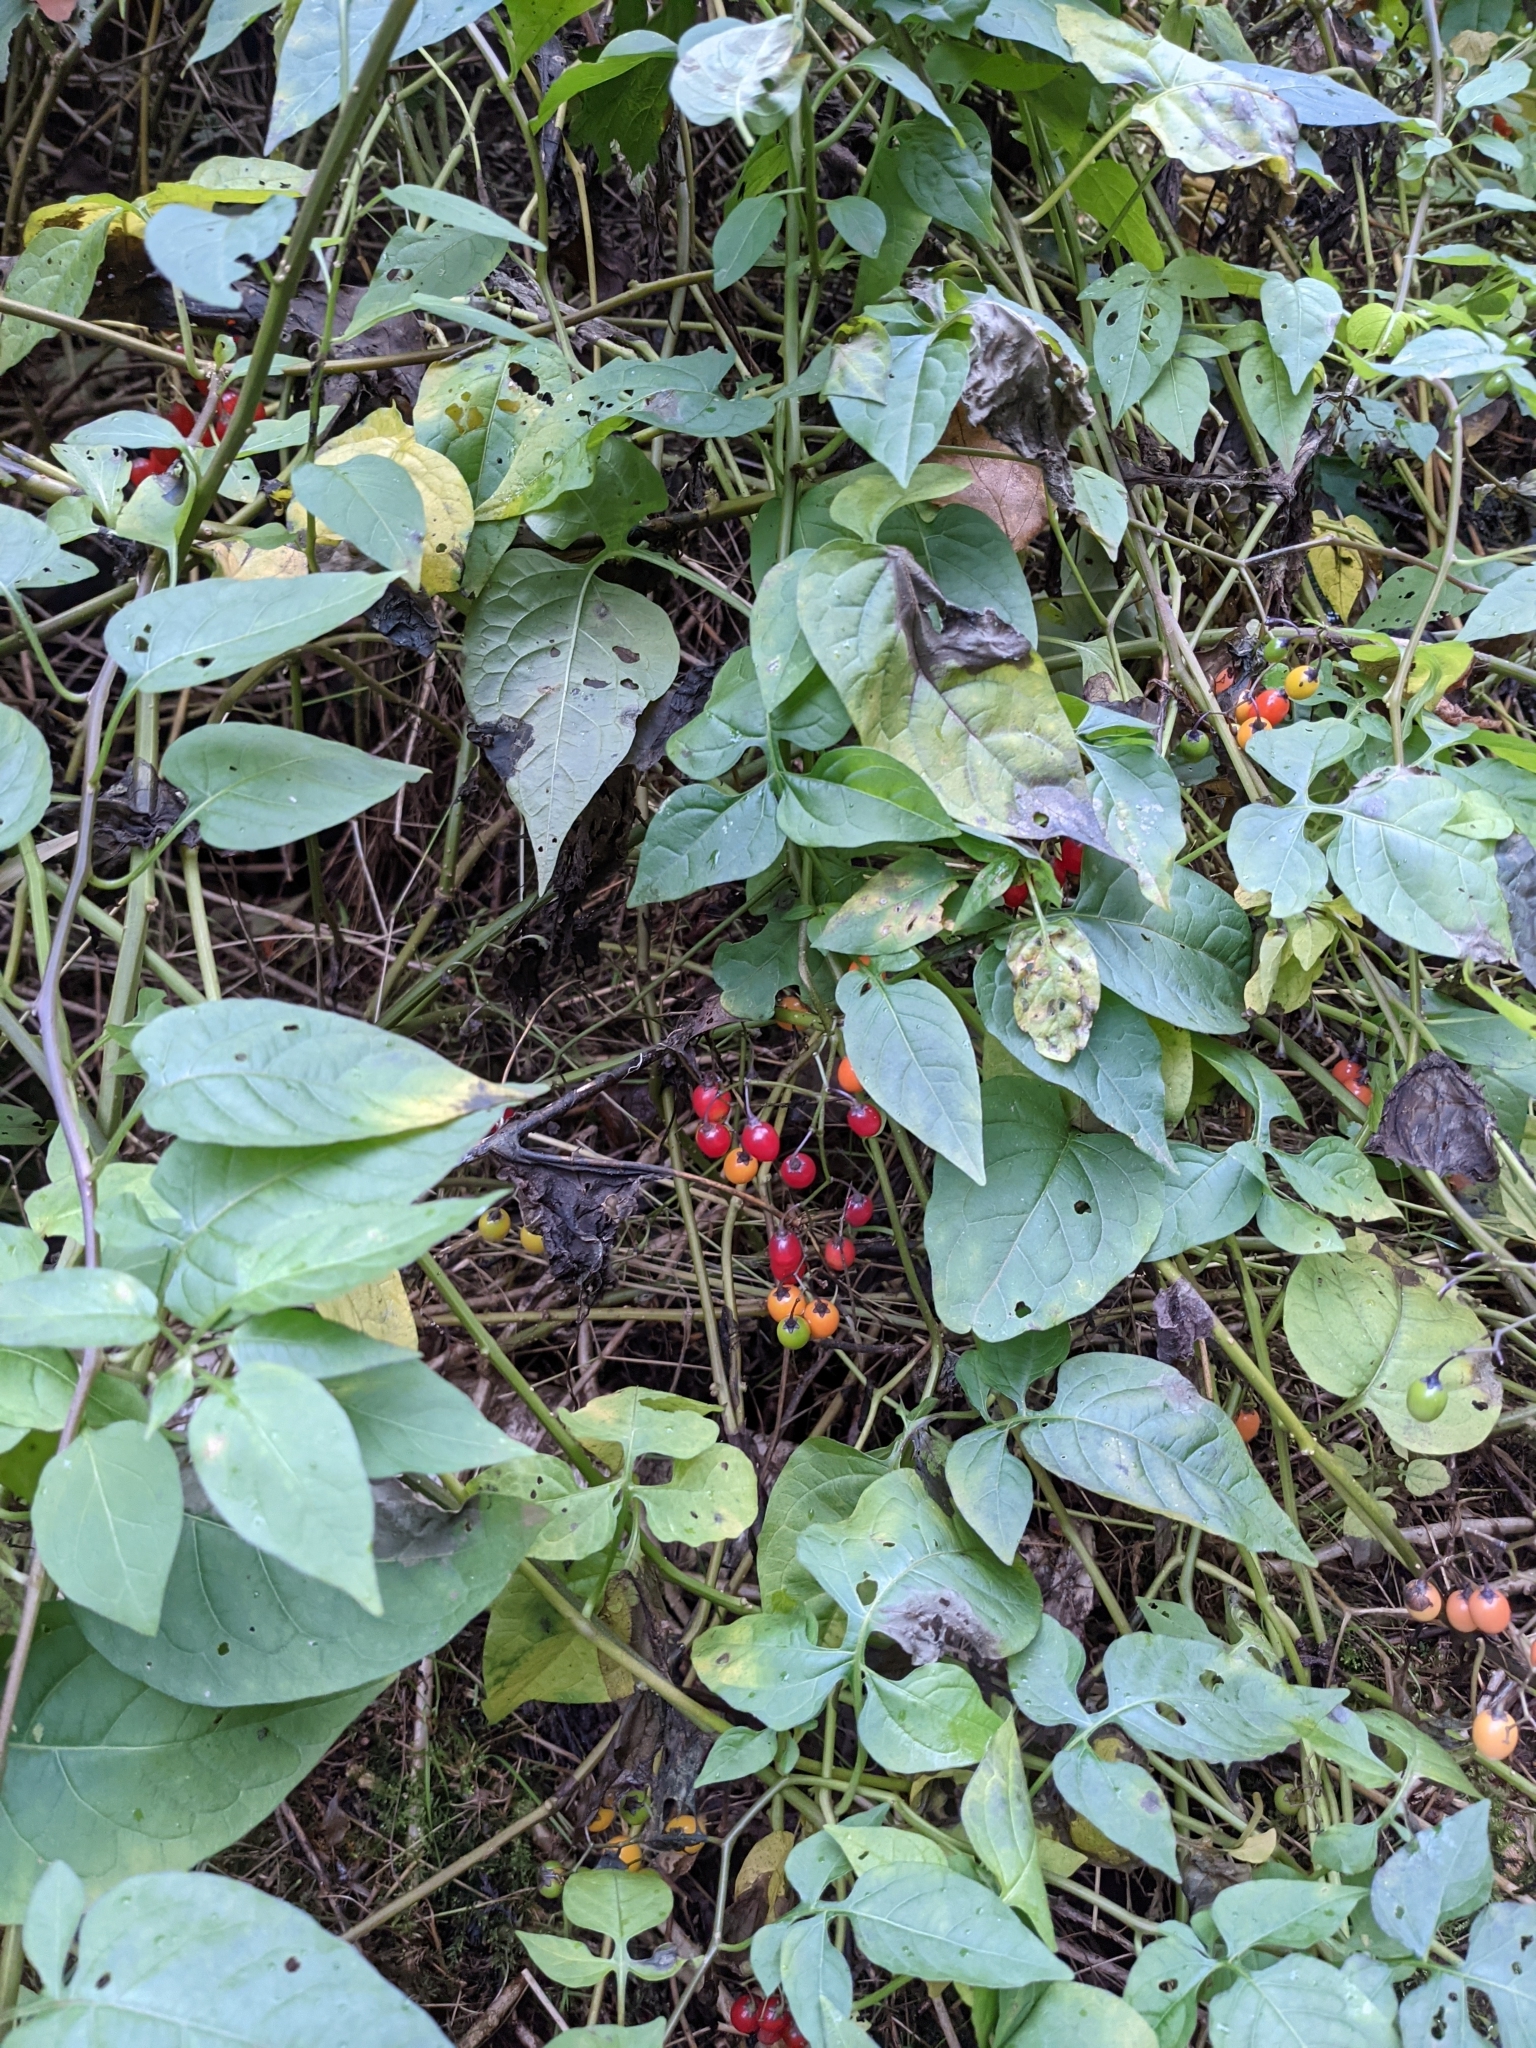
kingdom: Plantae
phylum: Tracheophyta
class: Magnoliopsida
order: Solanales
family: Solanaceae
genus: Solanum
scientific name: Solanum dulcamara
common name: Climbing nightshade
